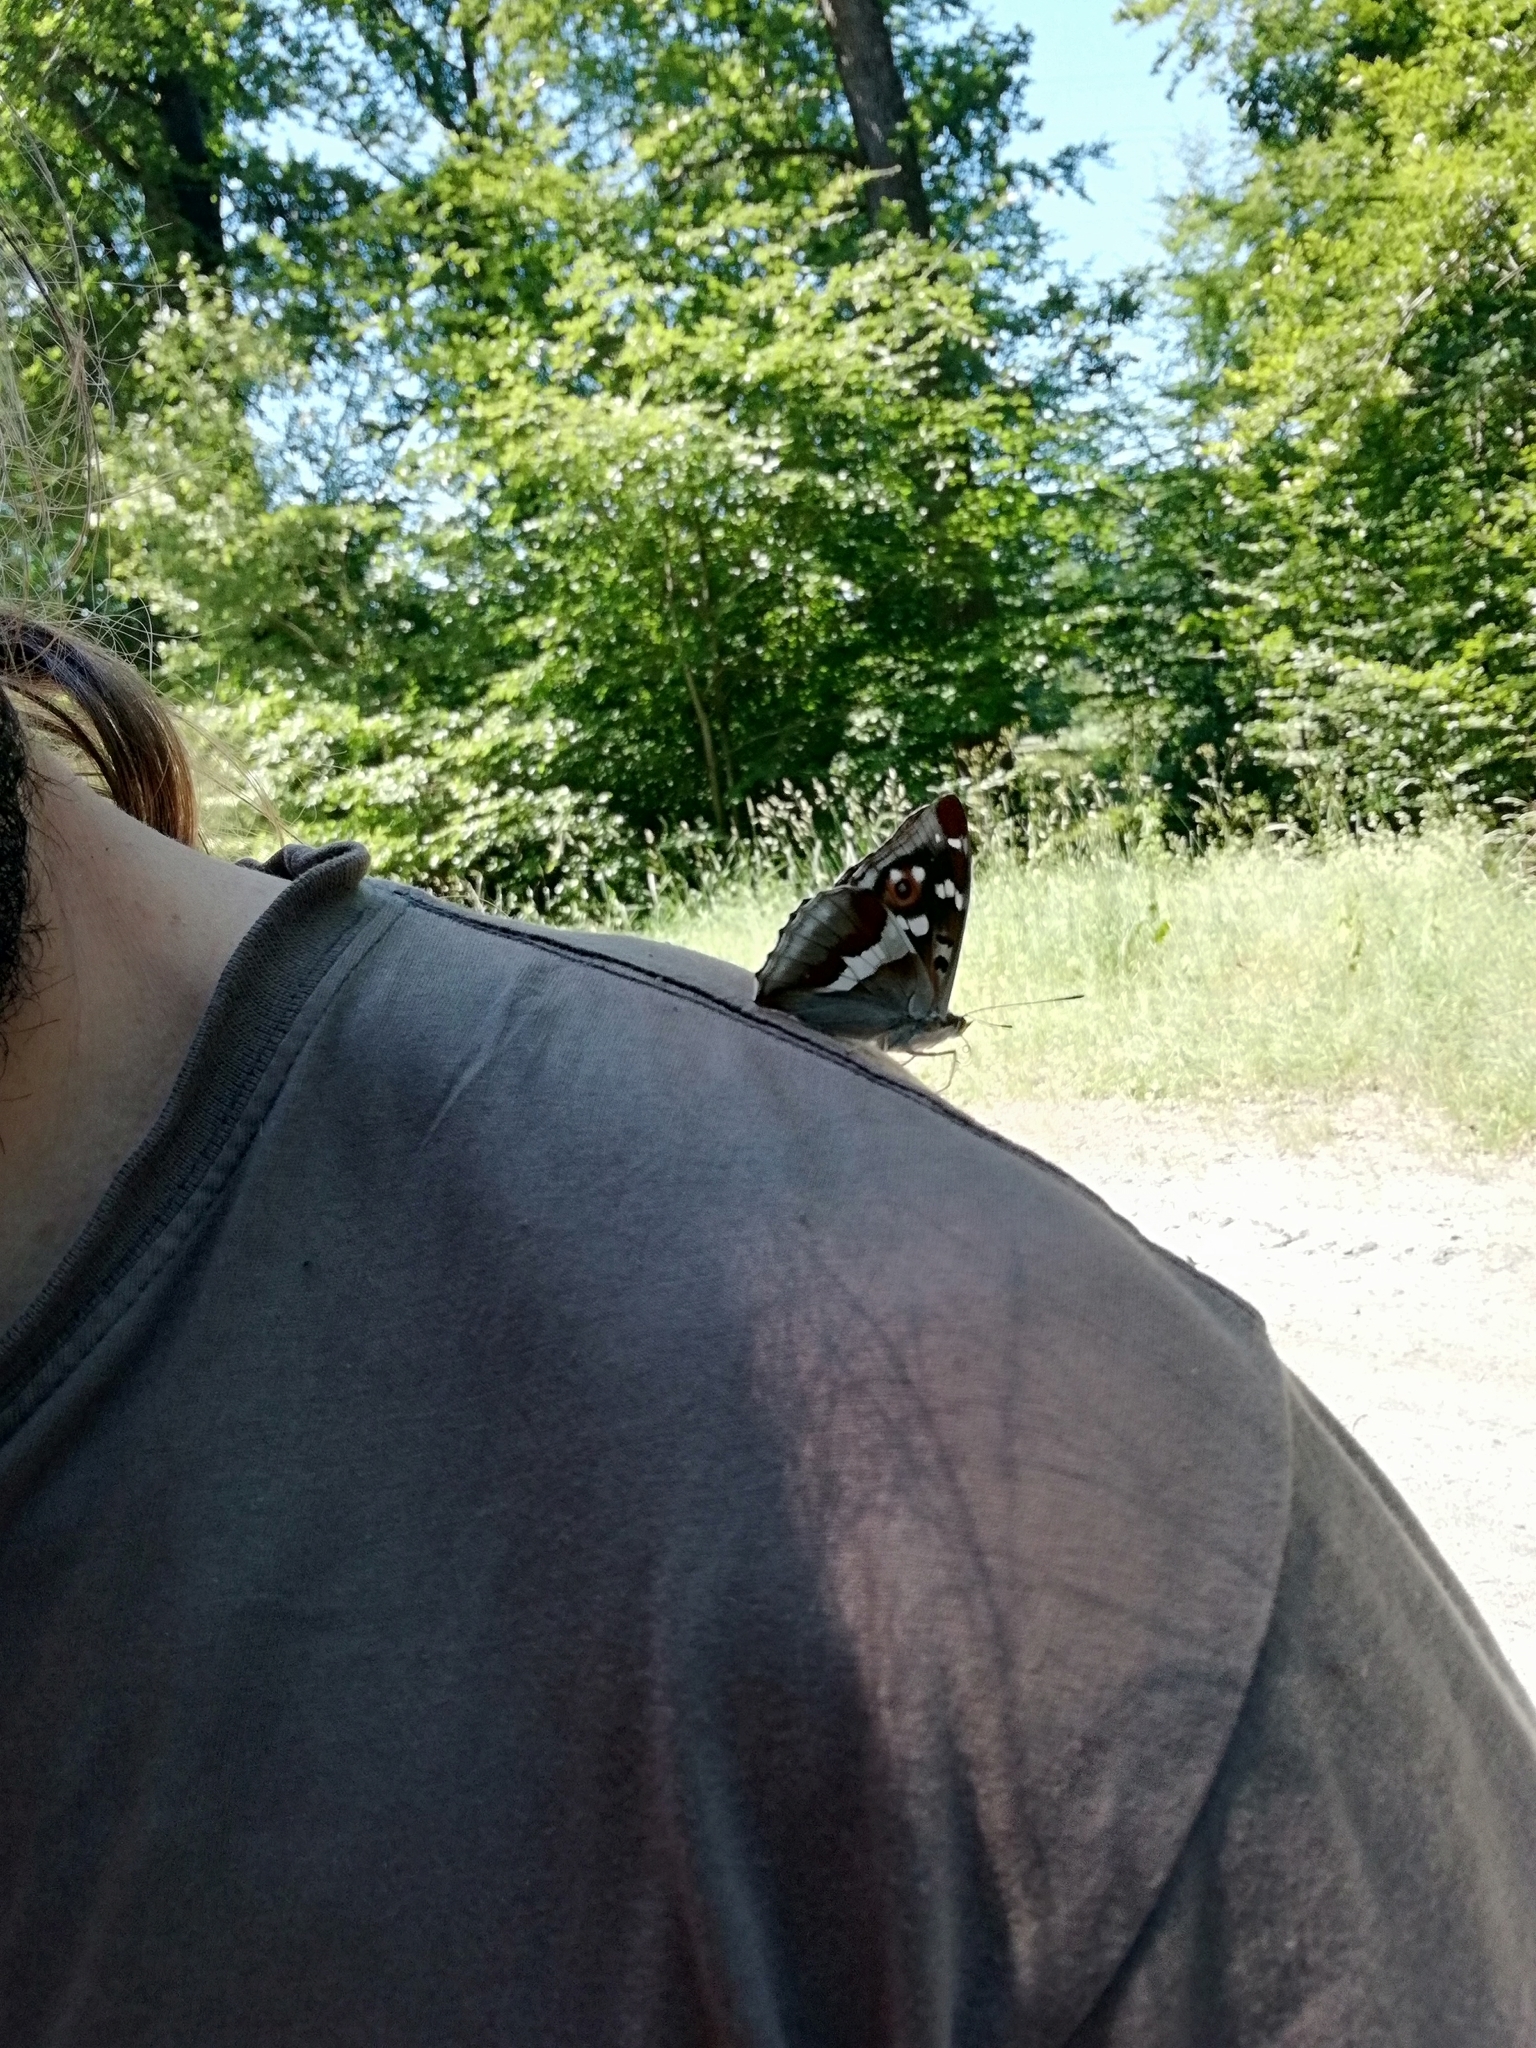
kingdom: Animalia
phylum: Arthropoda
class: Insecta
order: Lepidoptera
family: Nymphalidae
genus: Apatura
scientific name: Apatura iris
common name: Purple emperor
